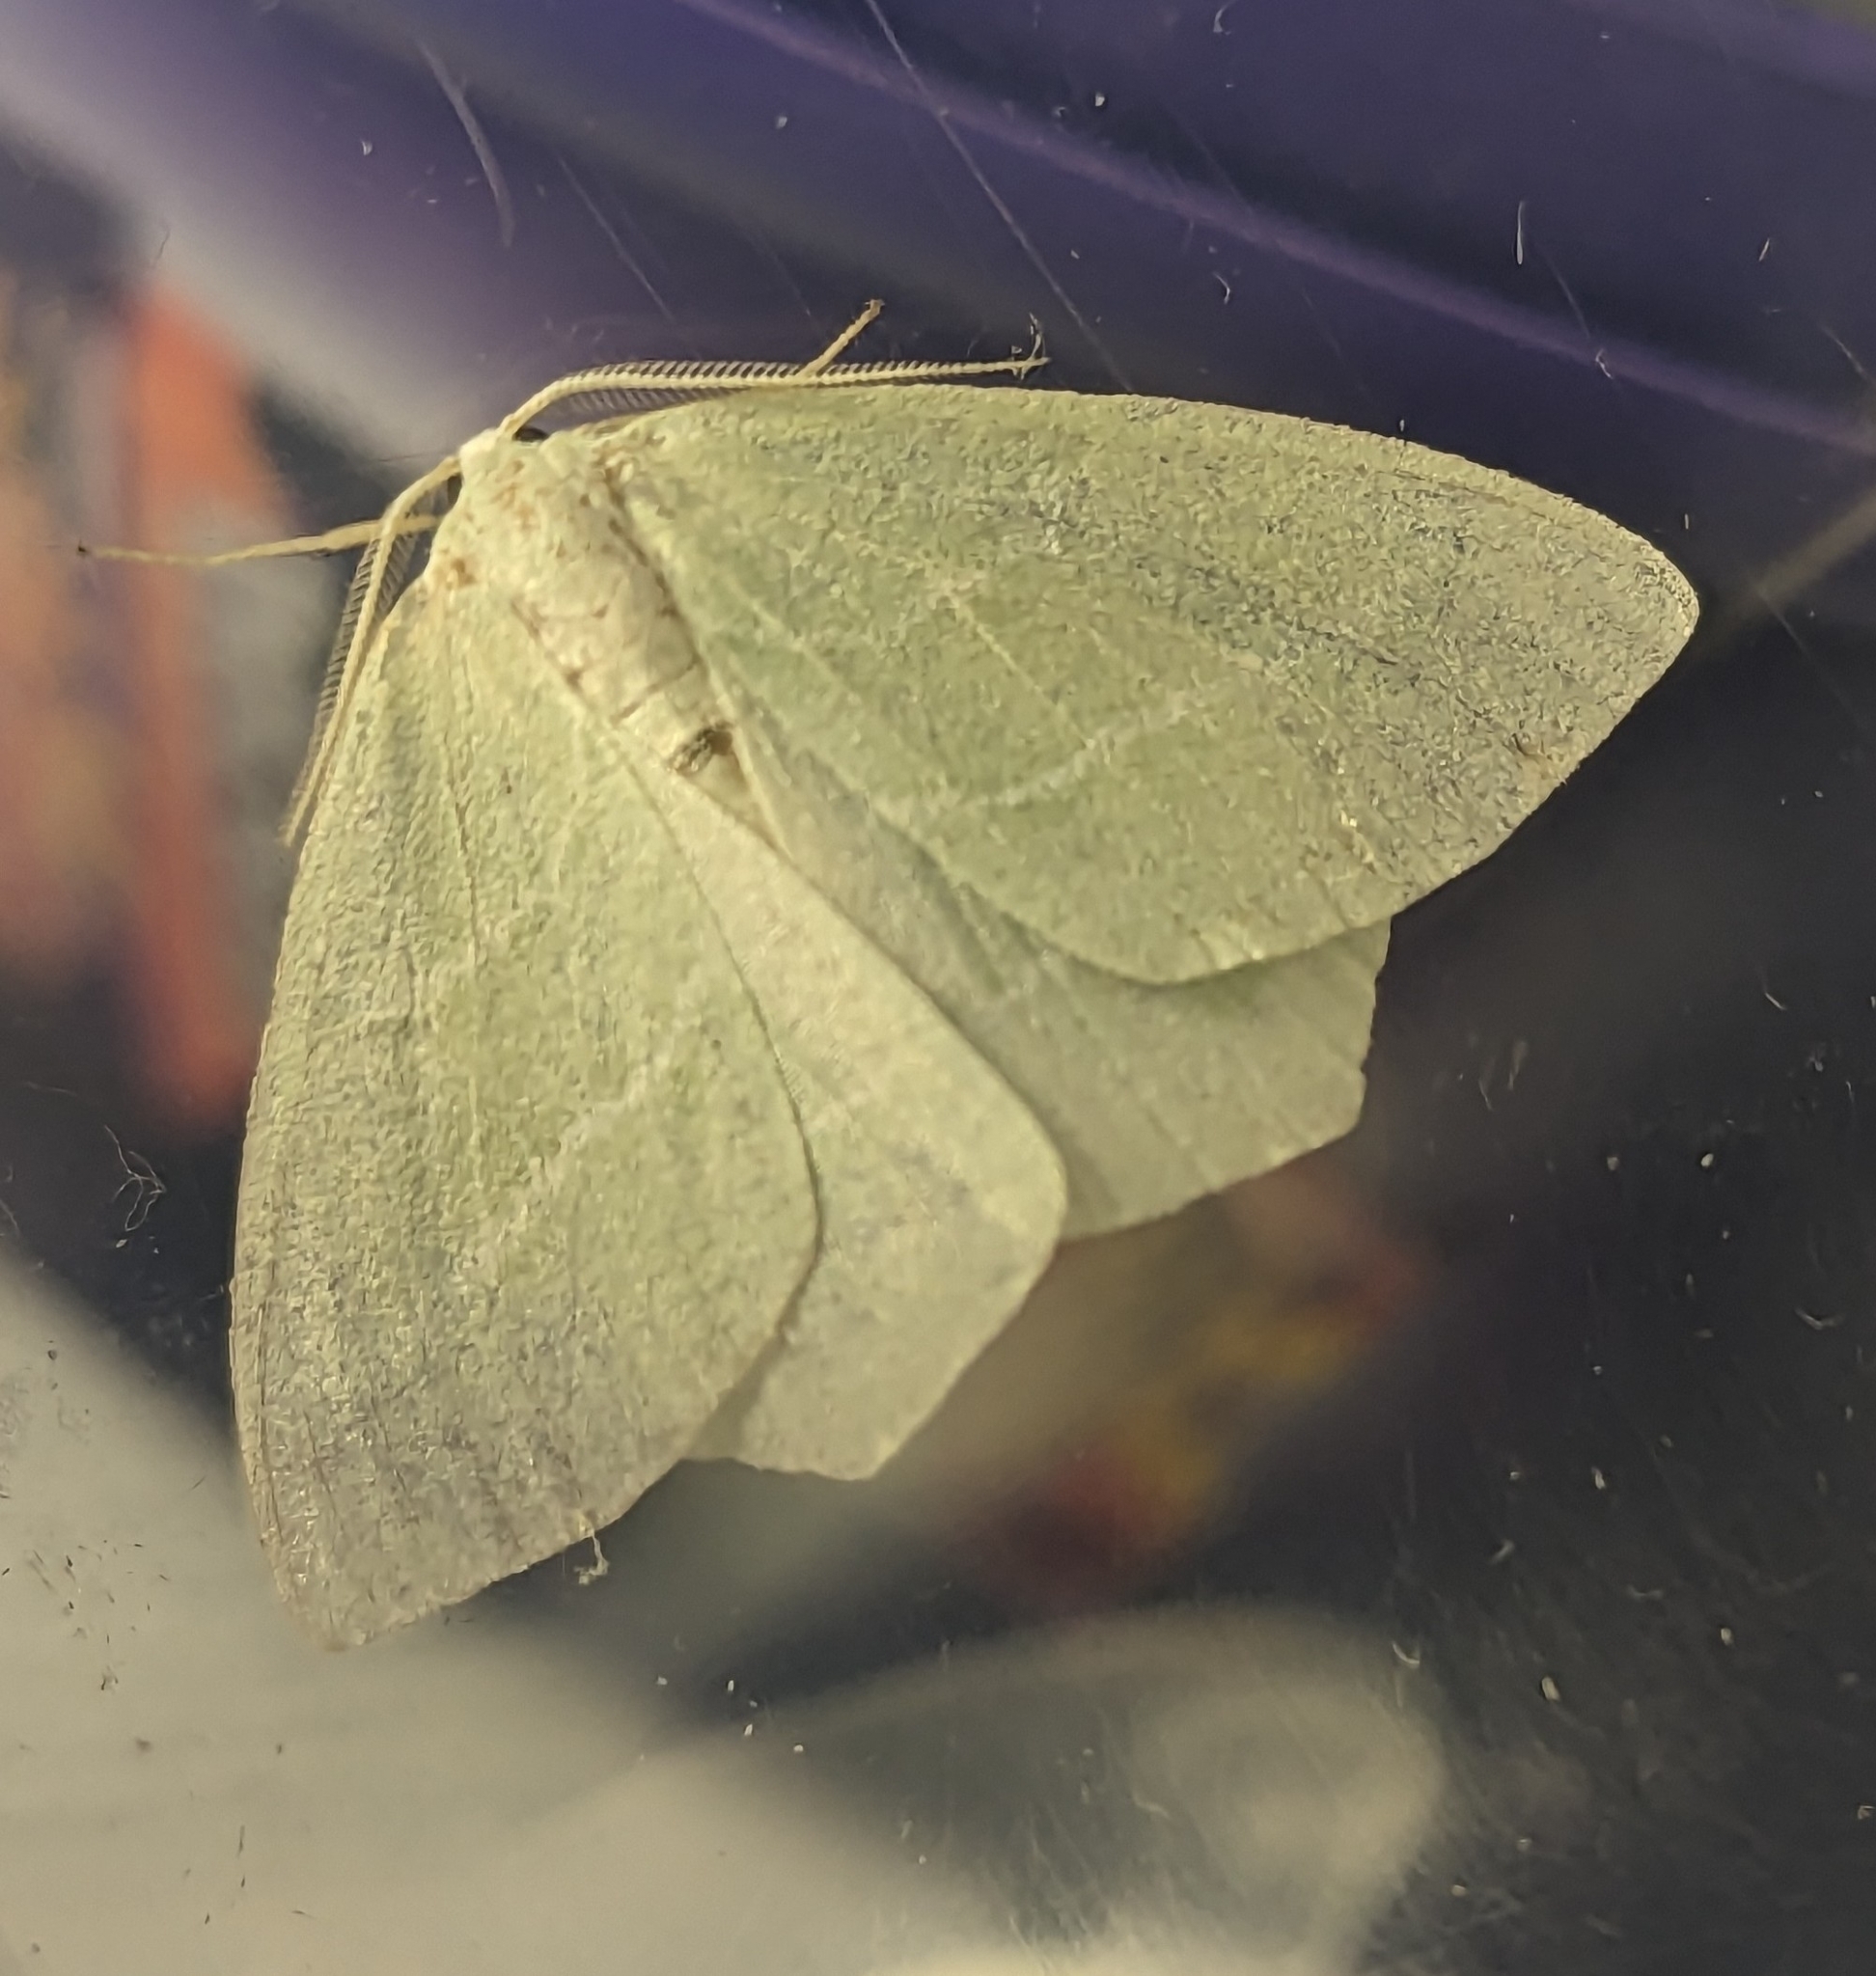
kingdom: Animalia
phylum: Arthropoda
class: Insecta
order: Lepidoptera
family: Geometridae
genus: Hemistola
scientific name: Hemistola chrysoprasaria
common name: Small emerald
